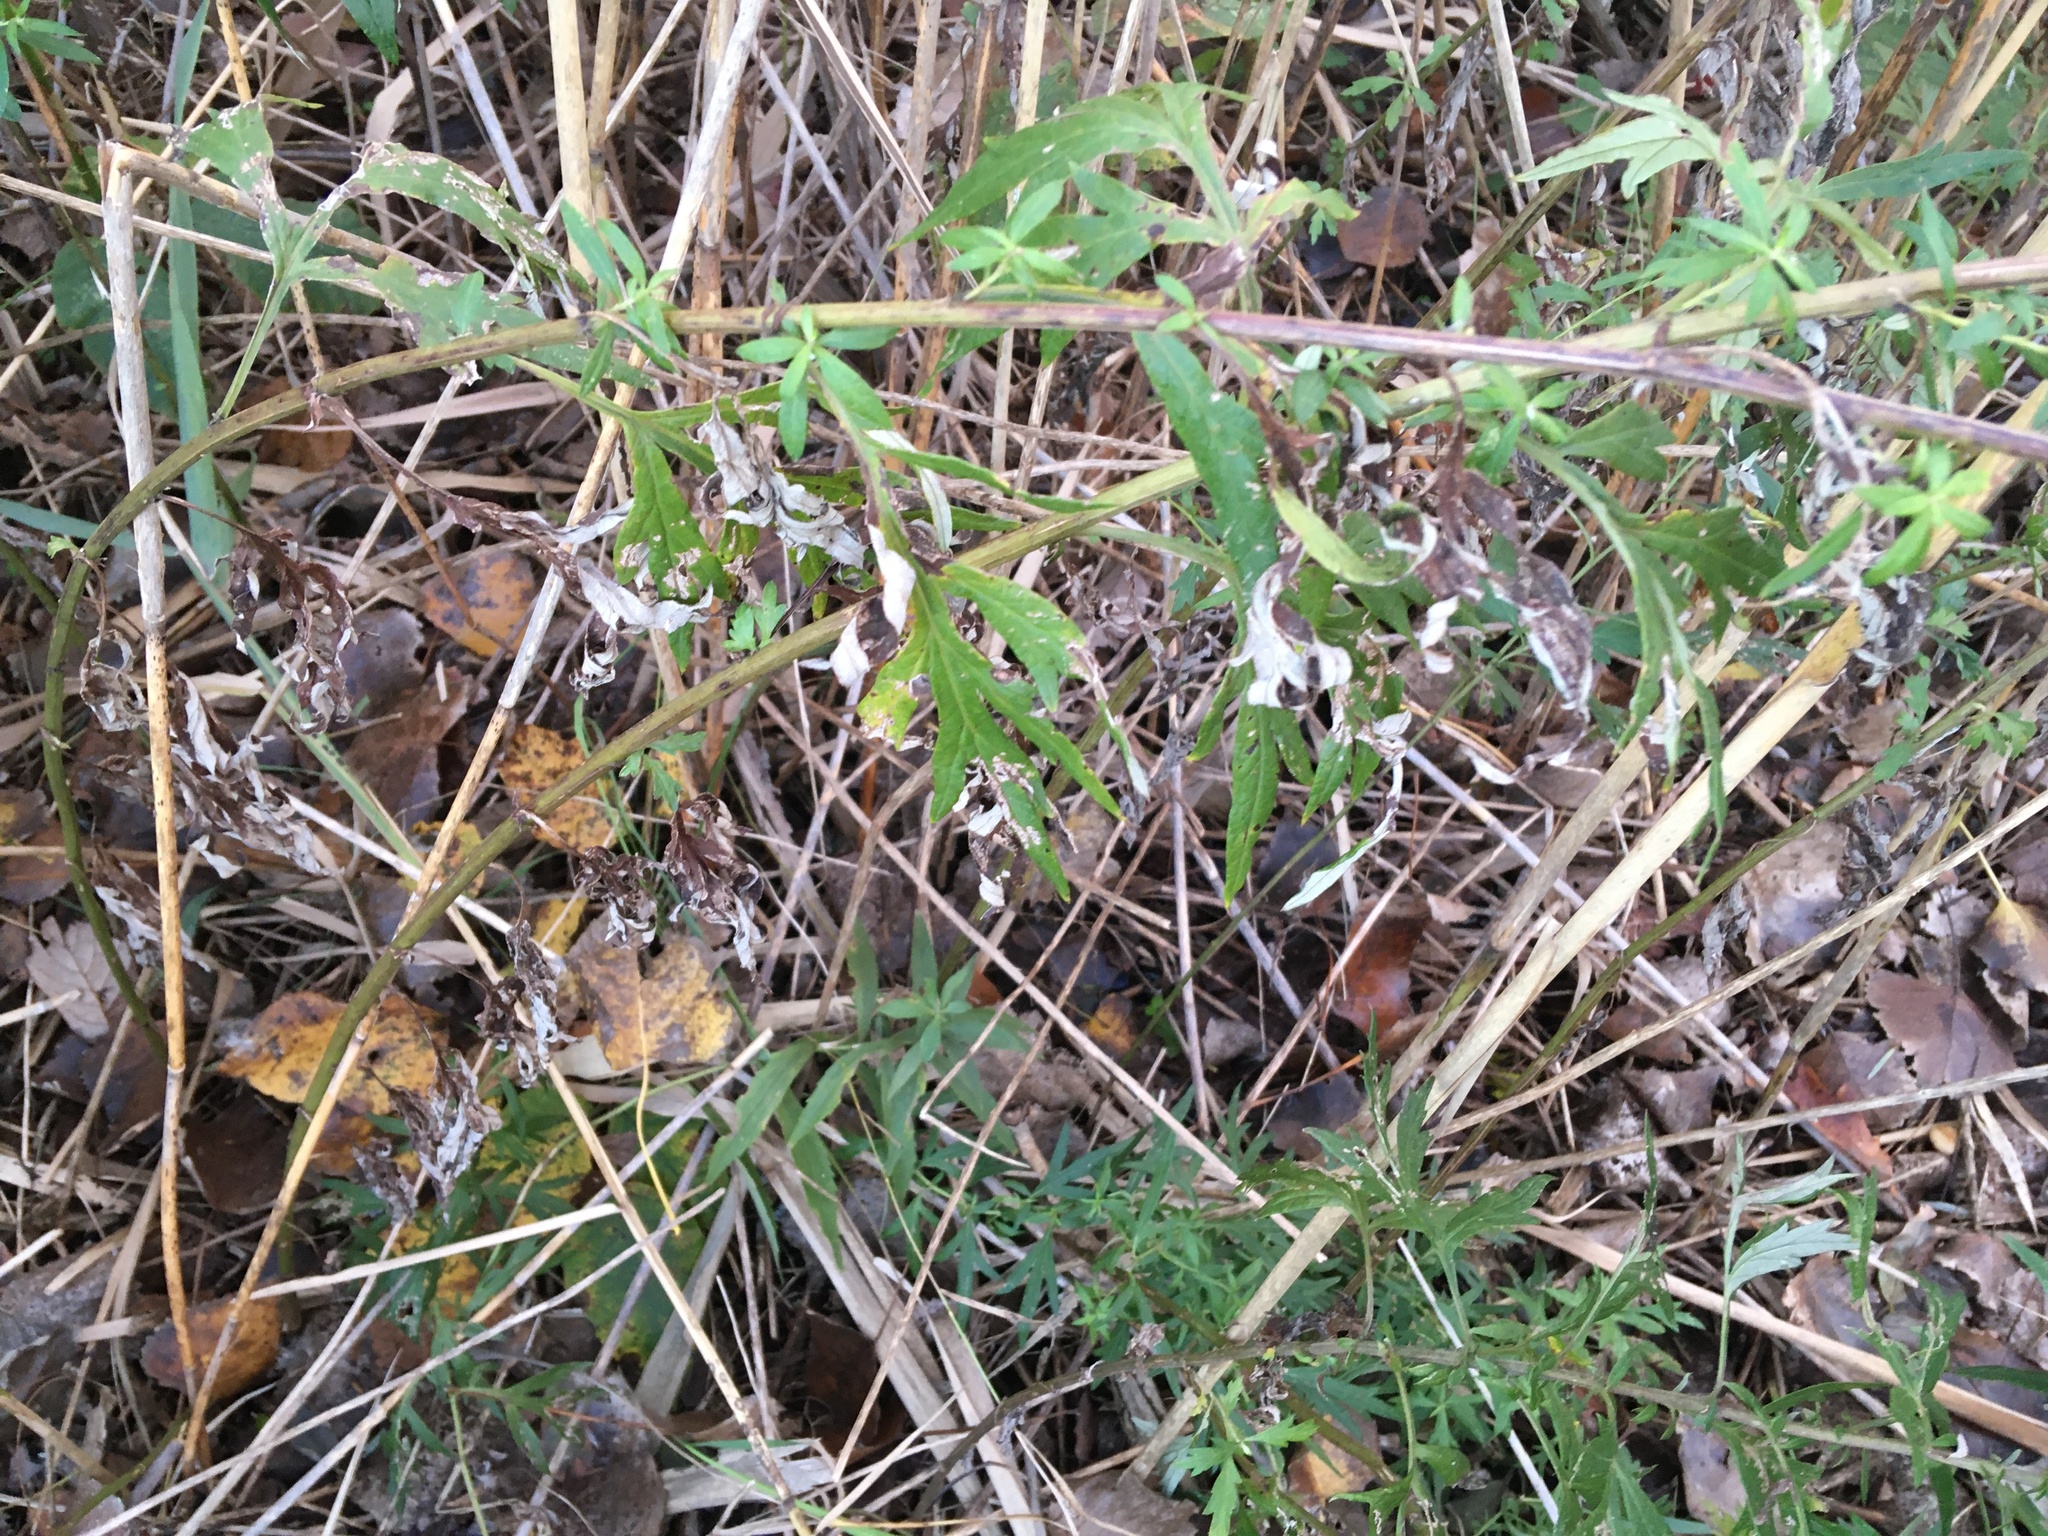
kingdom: Plantae
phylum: Tracheophyta
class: Magnoliopsida
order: Asterales
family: Asteraceae
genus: Artemisia
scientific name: Artemisia vulgaris
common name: Mugwort
